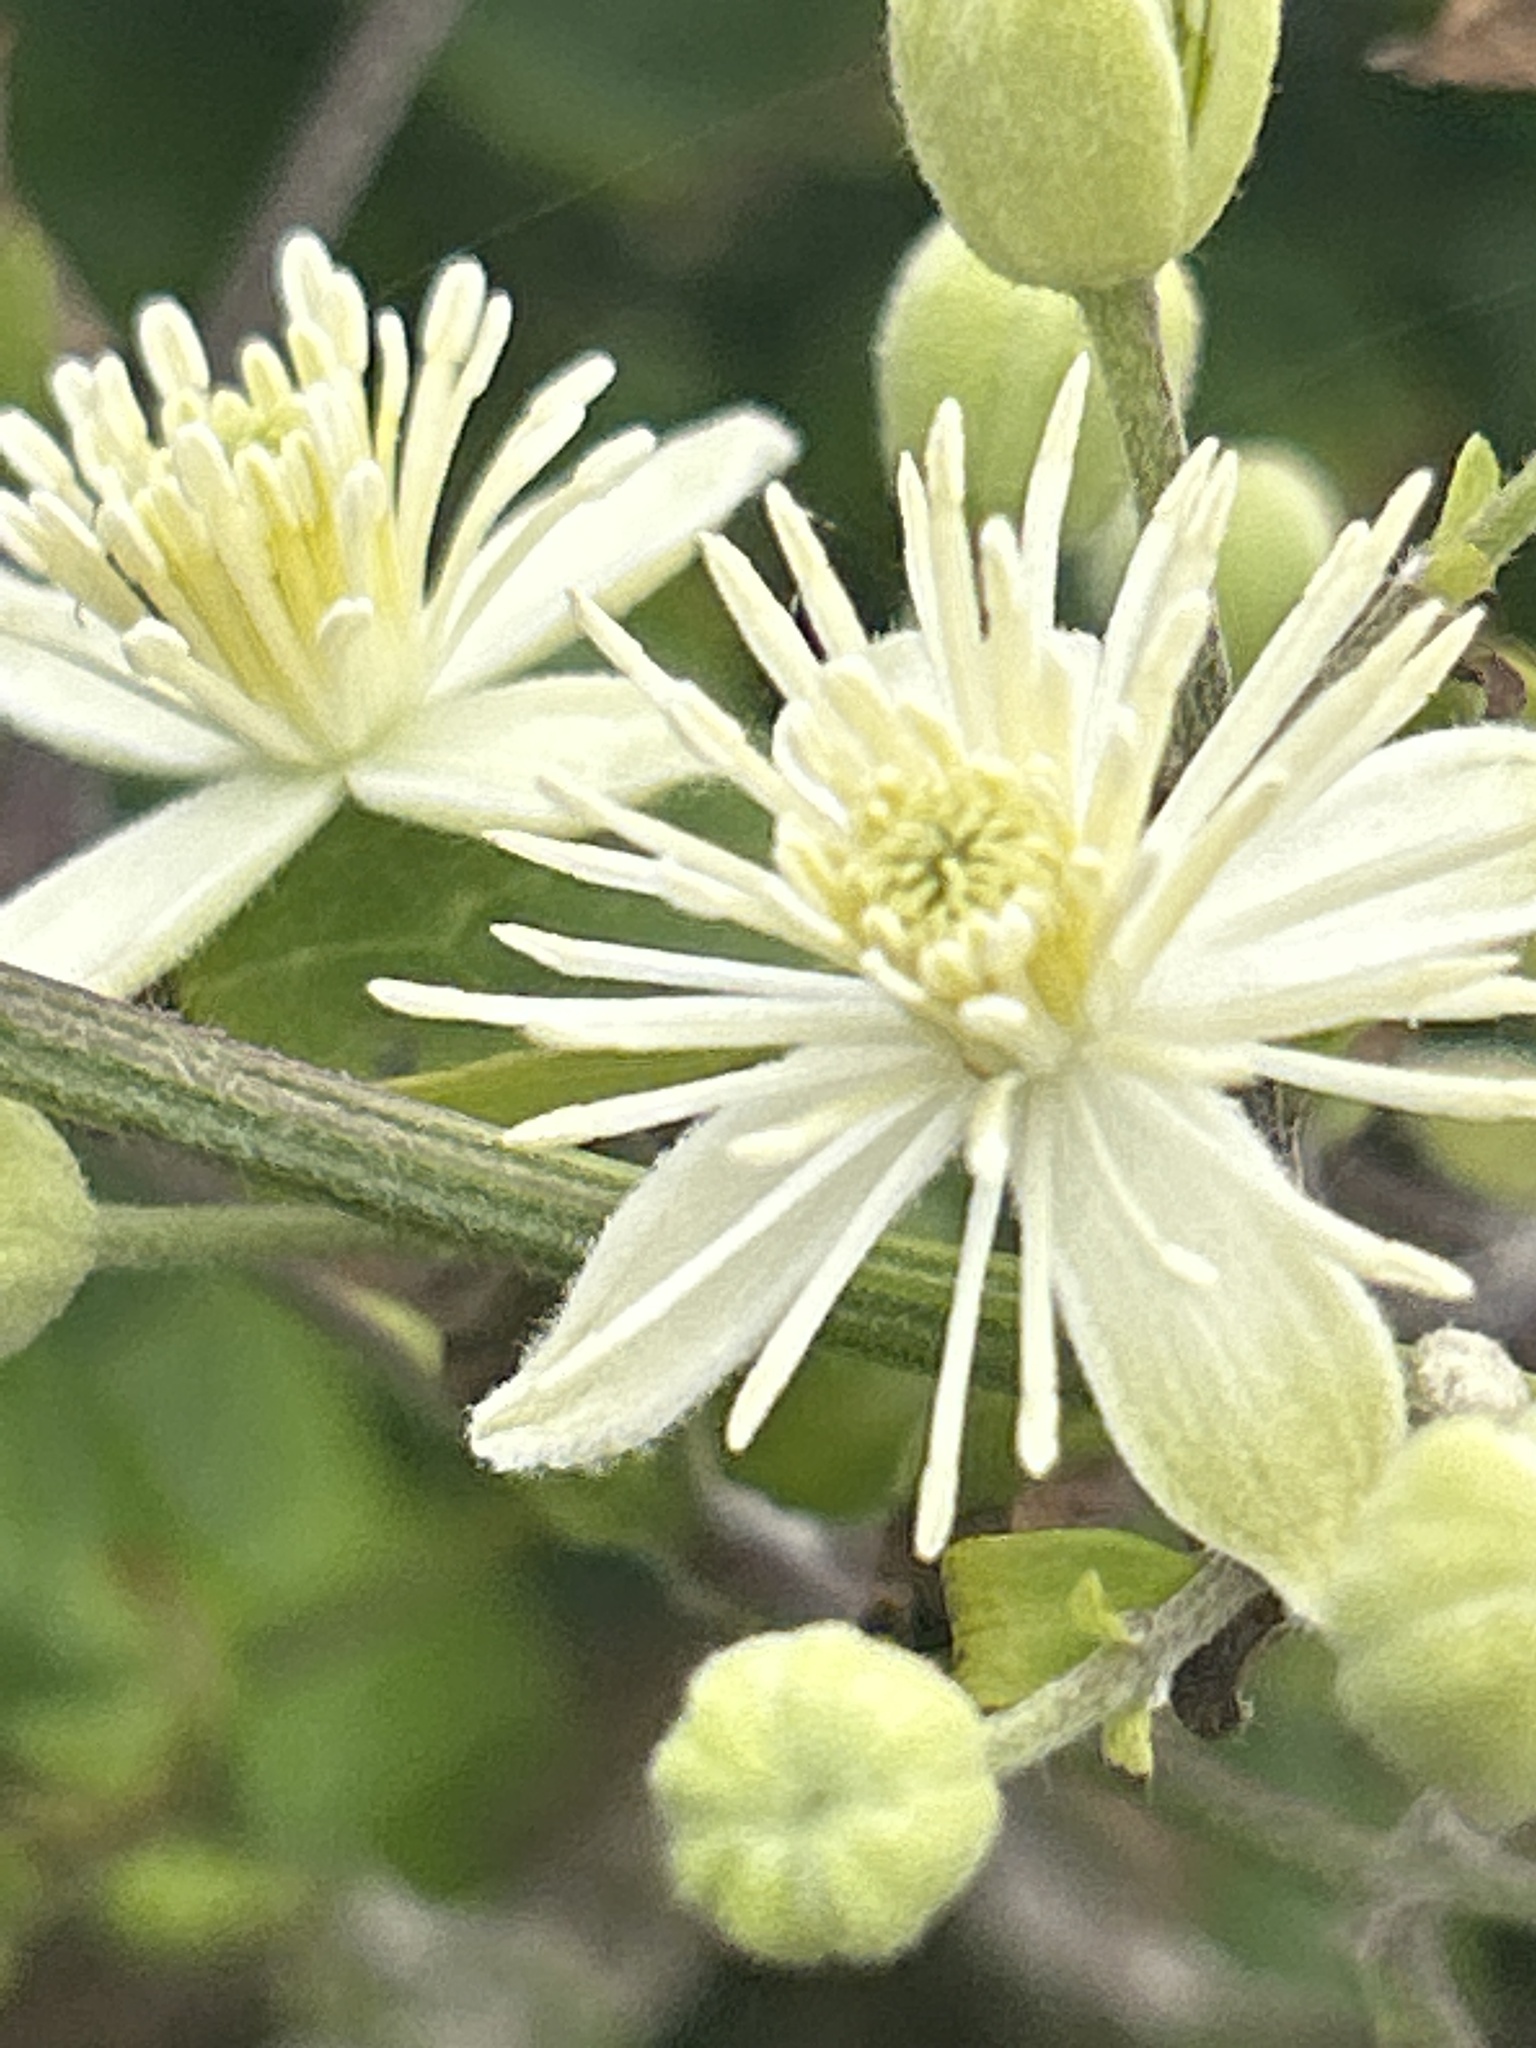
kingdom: Plantae
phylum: Tracheophyta
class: Magnoliopsida
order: Ranunculales
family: Ranunculaceae
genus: Clematis
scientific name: Clematis vitalba
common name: Evergreen clematis
